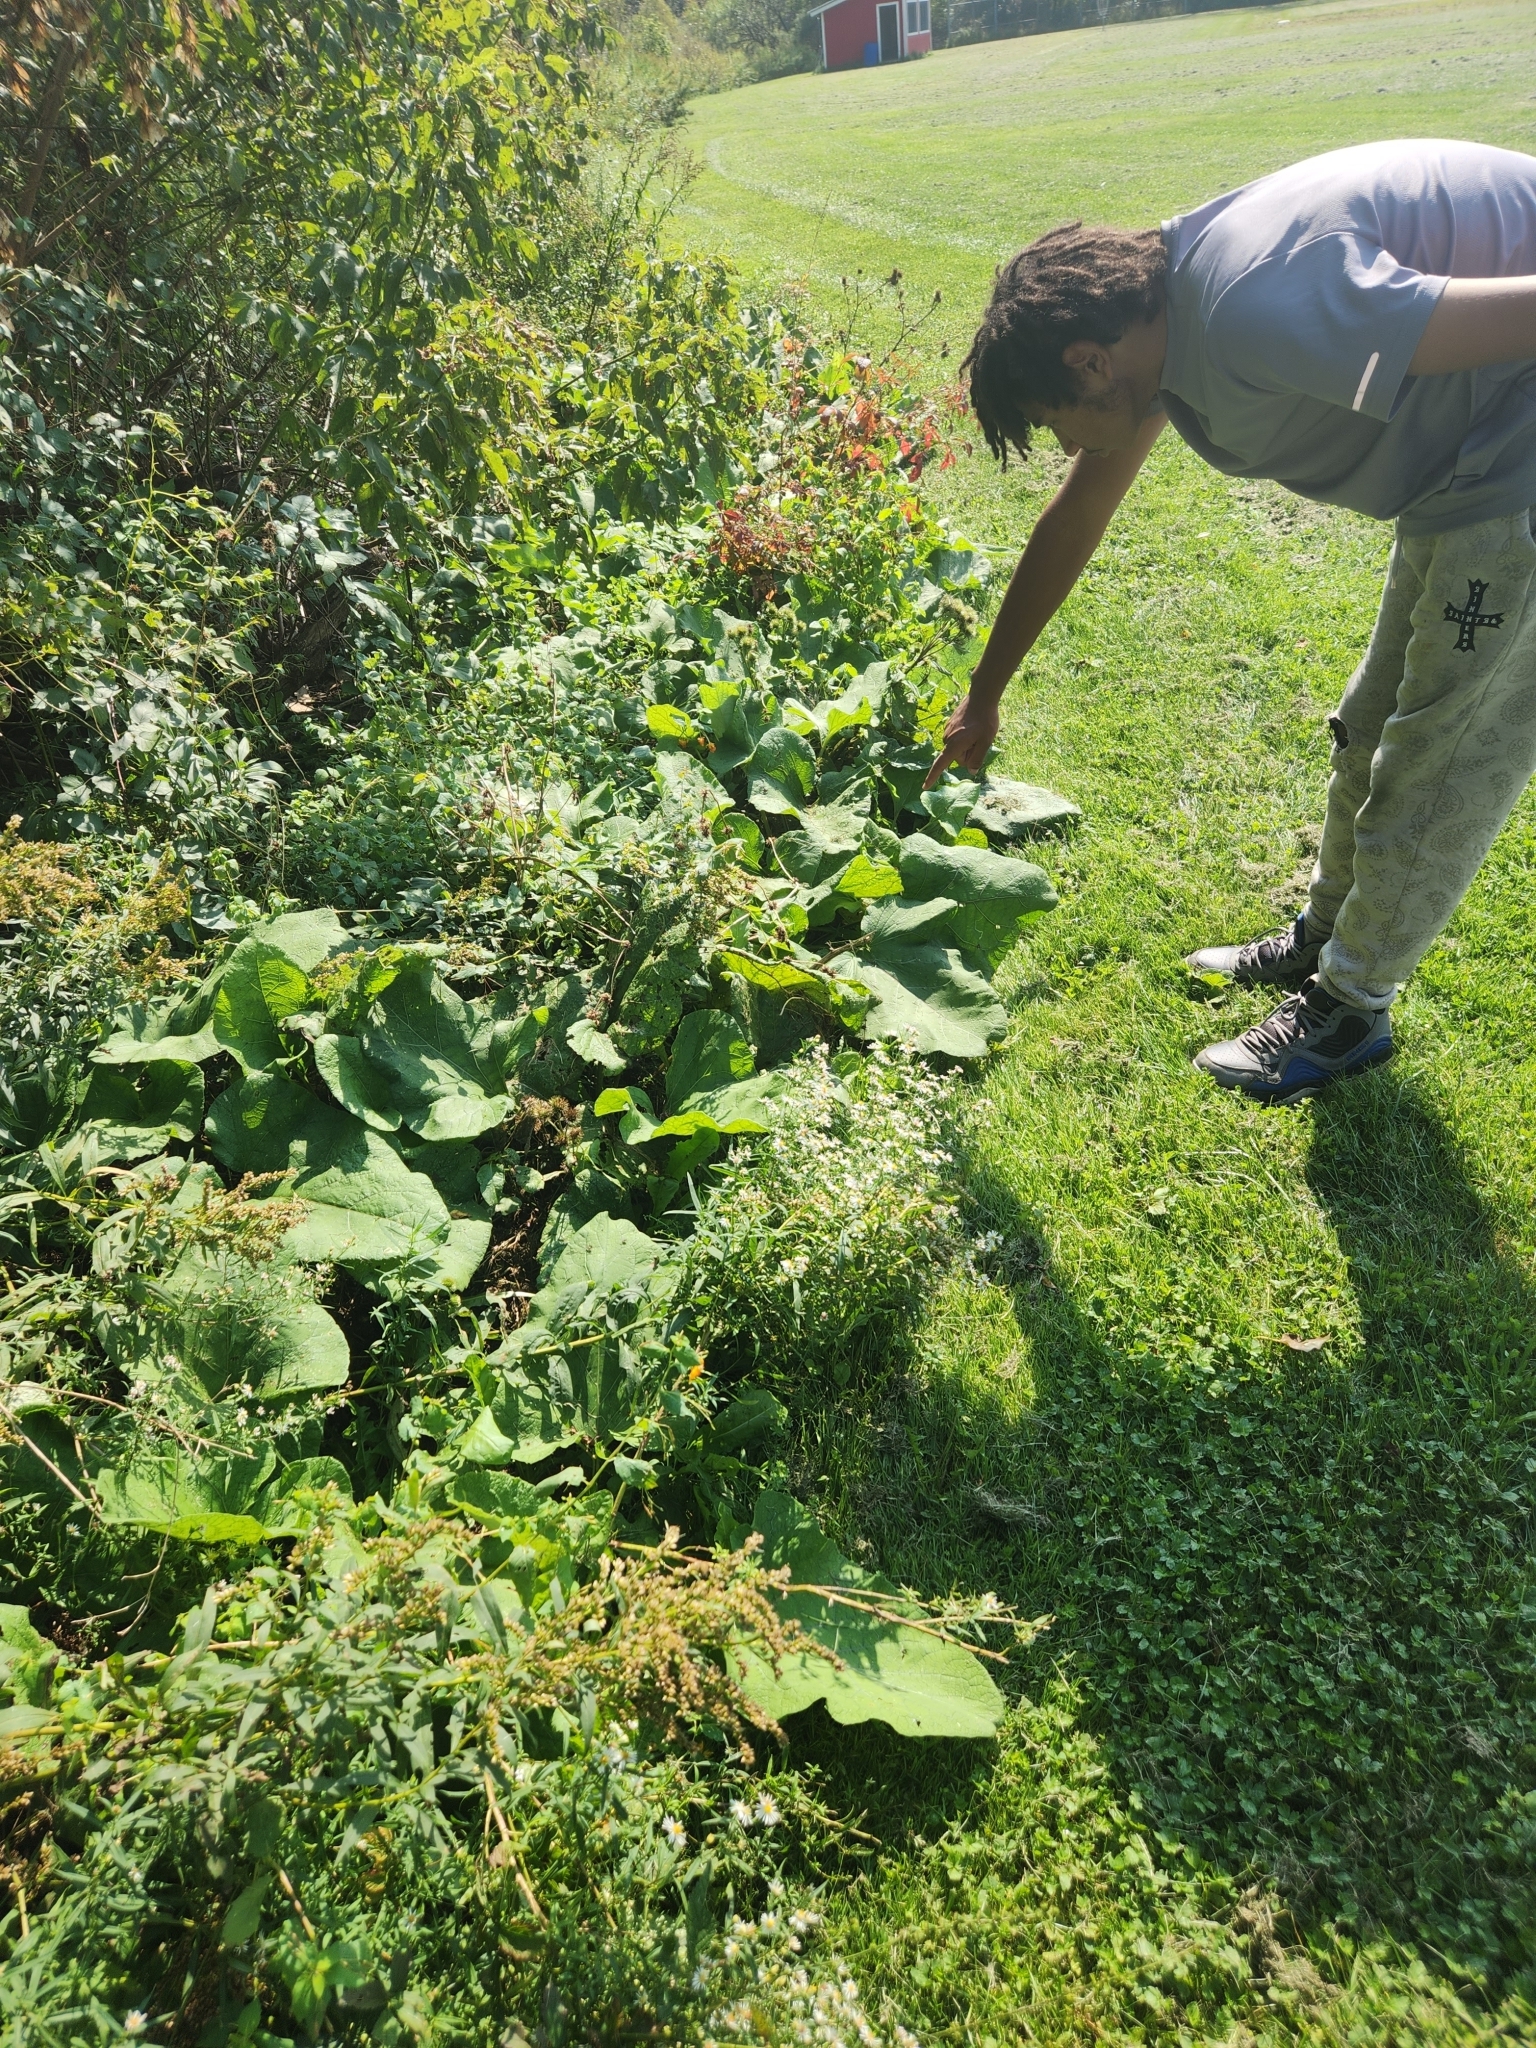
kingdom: Plantae
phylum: Tracheophyta
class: Magnoliopsida
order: Asterales
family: Asteraceae
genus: Arctium
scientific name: Arctium
